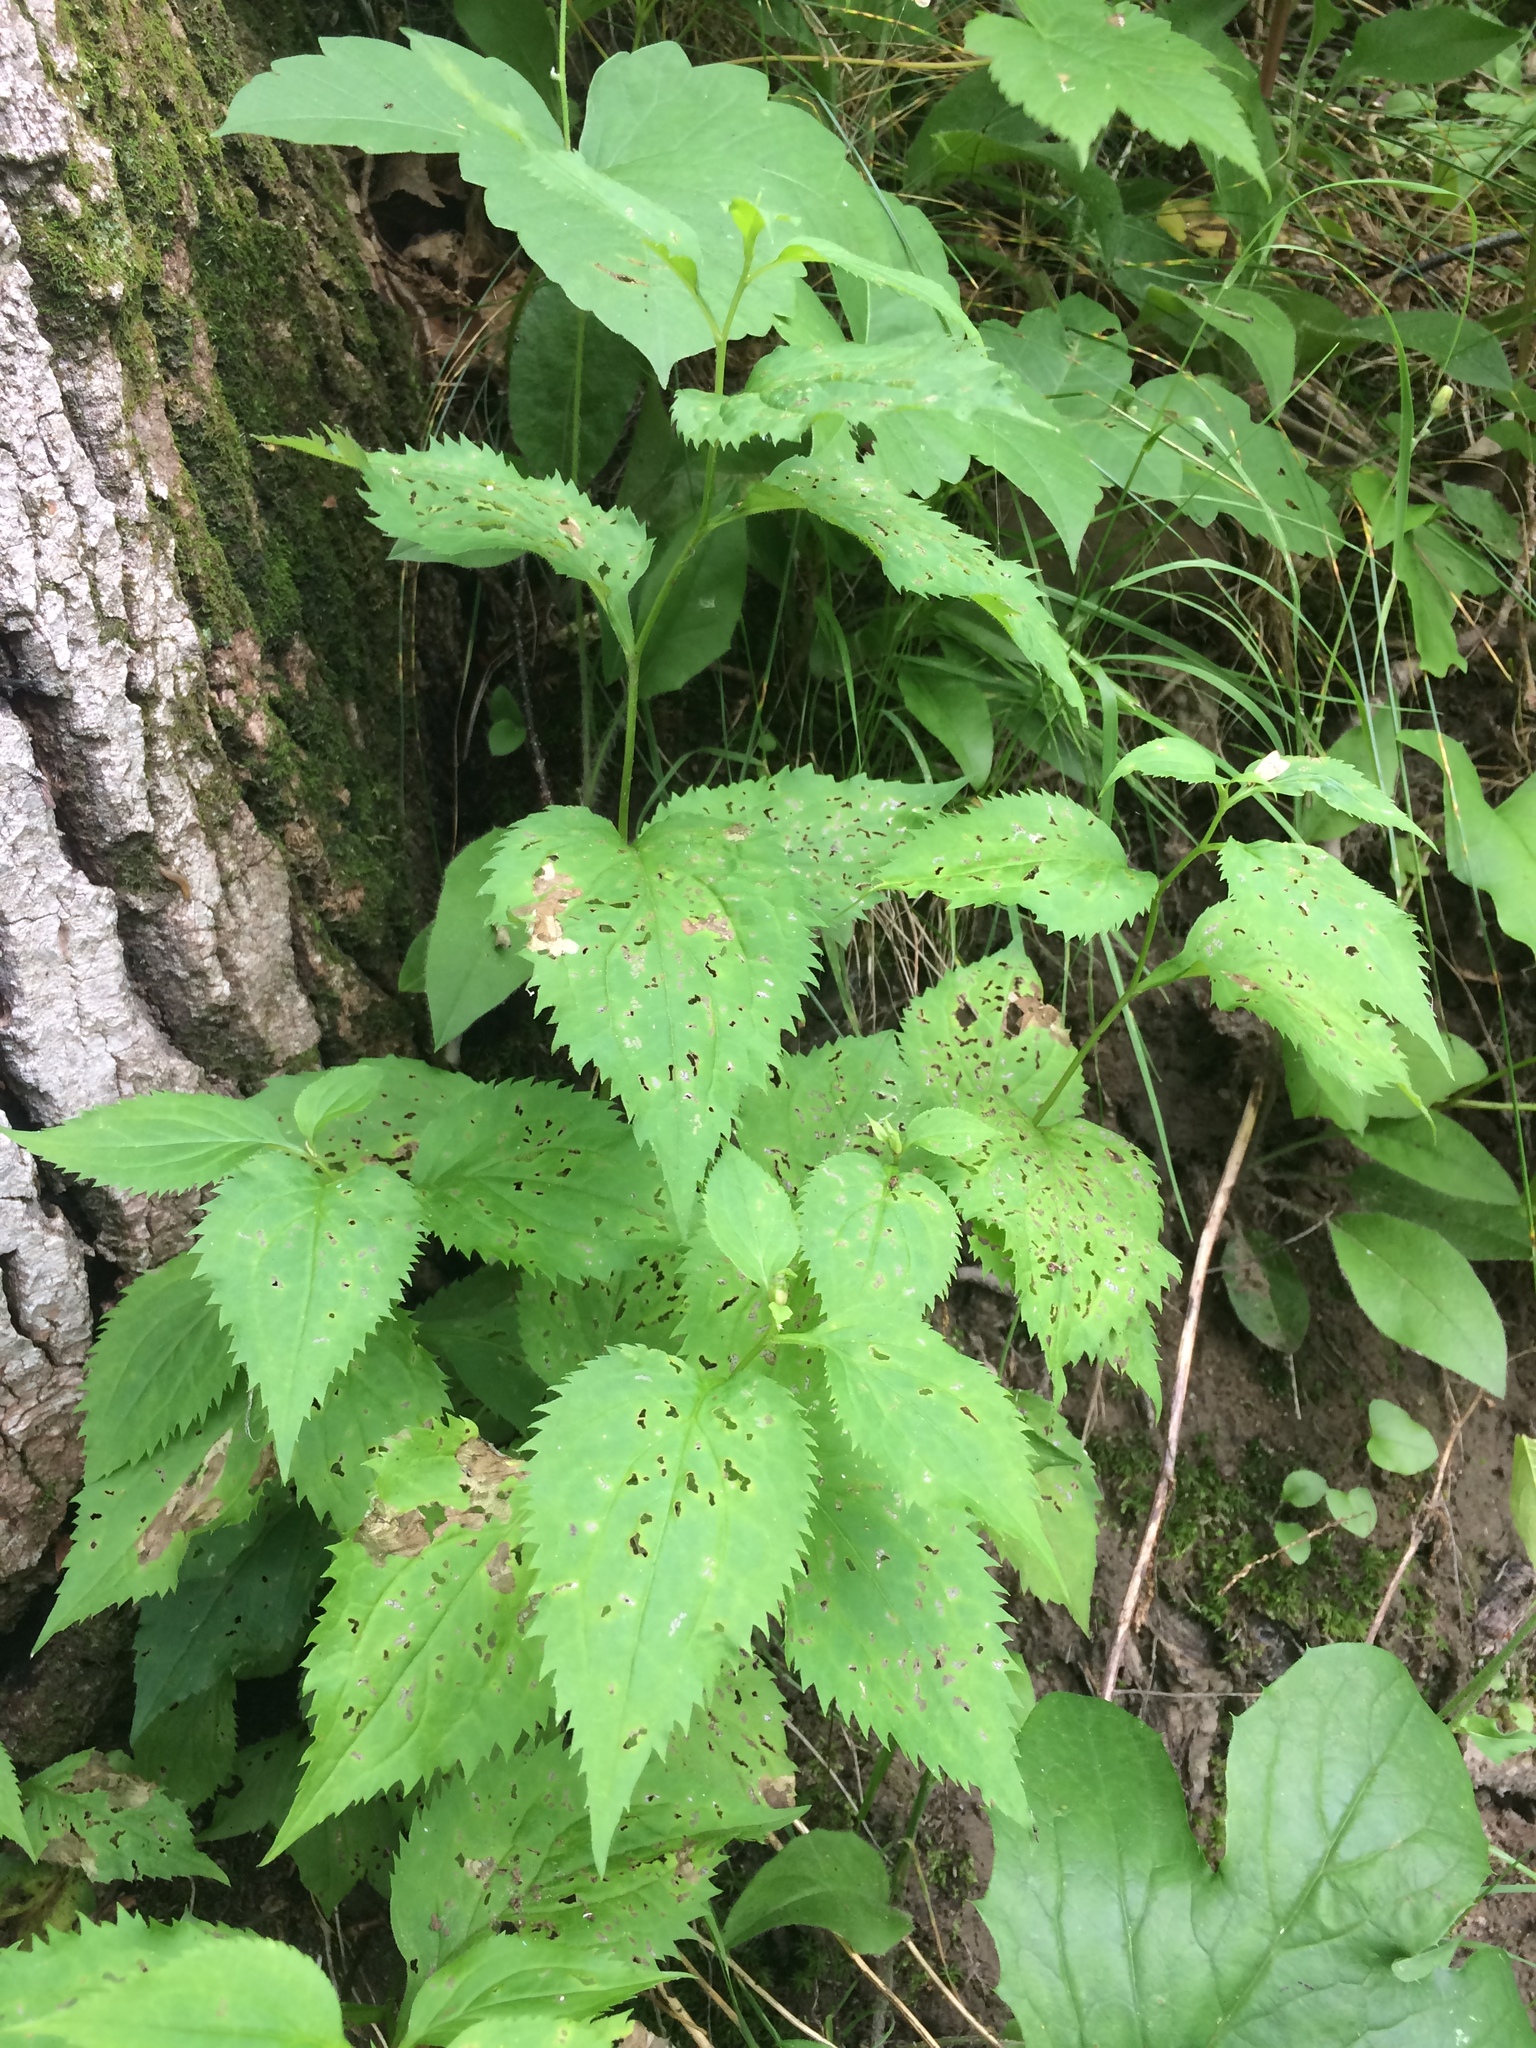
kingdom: Plantae
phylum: Tracheophyta
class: Magnoliopsida
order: Asterales
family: Asteraceae
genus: Solidago
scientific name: Solidago flexicaulis
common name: Zig-zag goldenrod
